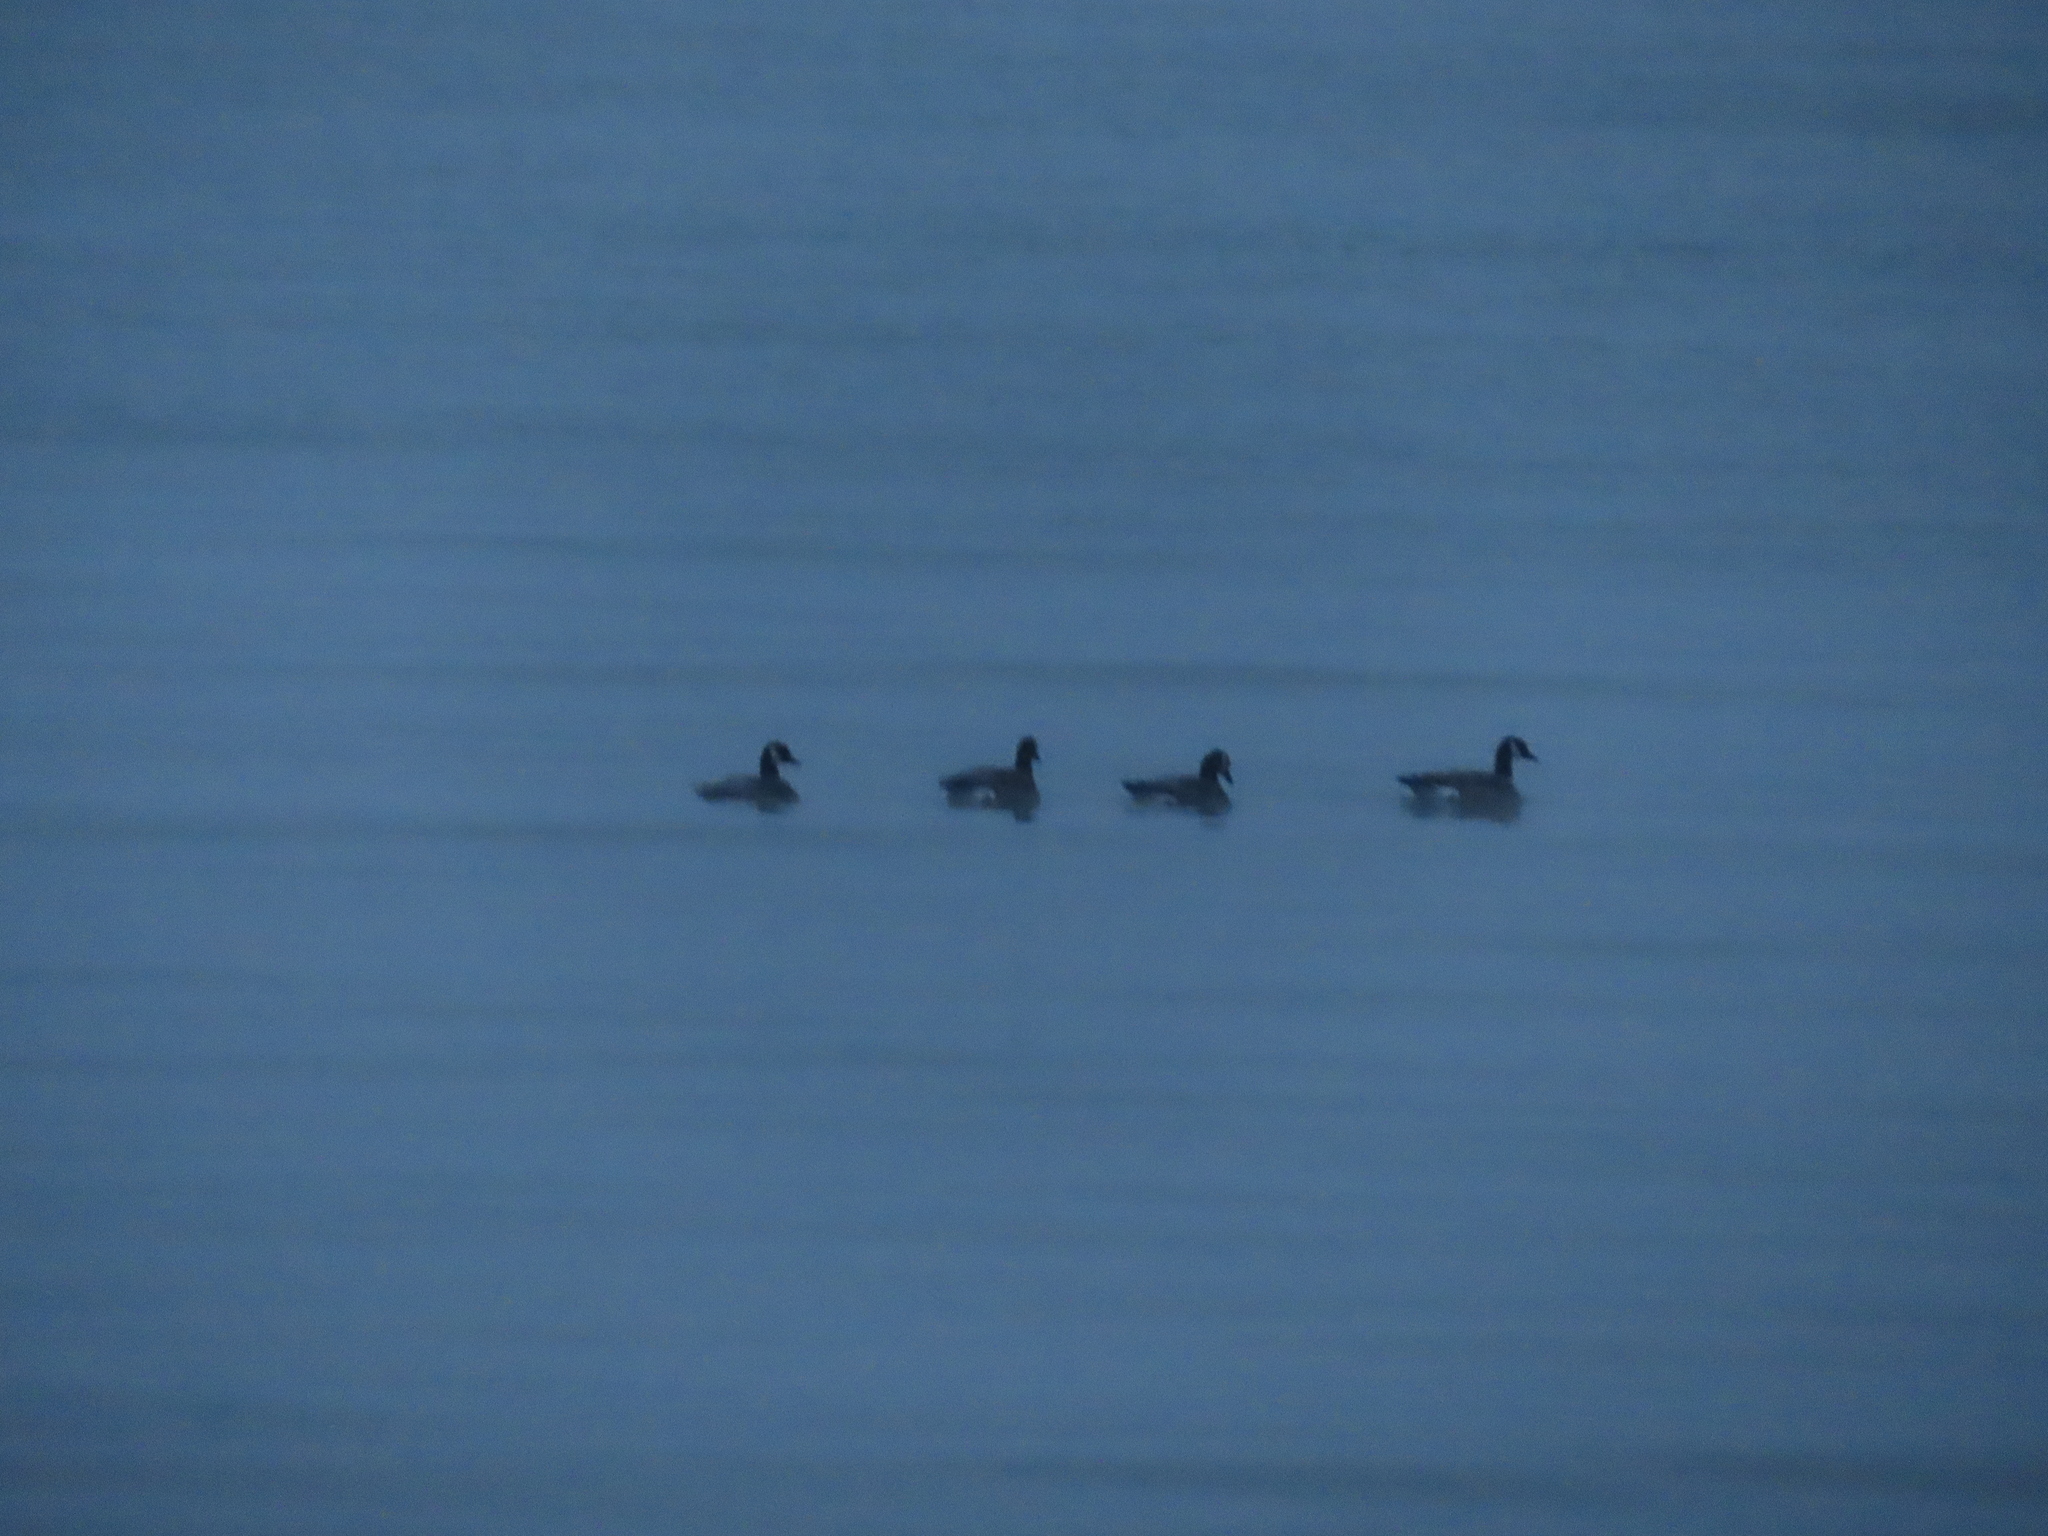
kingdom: Animalia
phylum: Chordata
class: Aves
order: Anseriformes
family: Anatidae
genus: Branta
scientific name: Branta canadensis
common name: Canada goose
